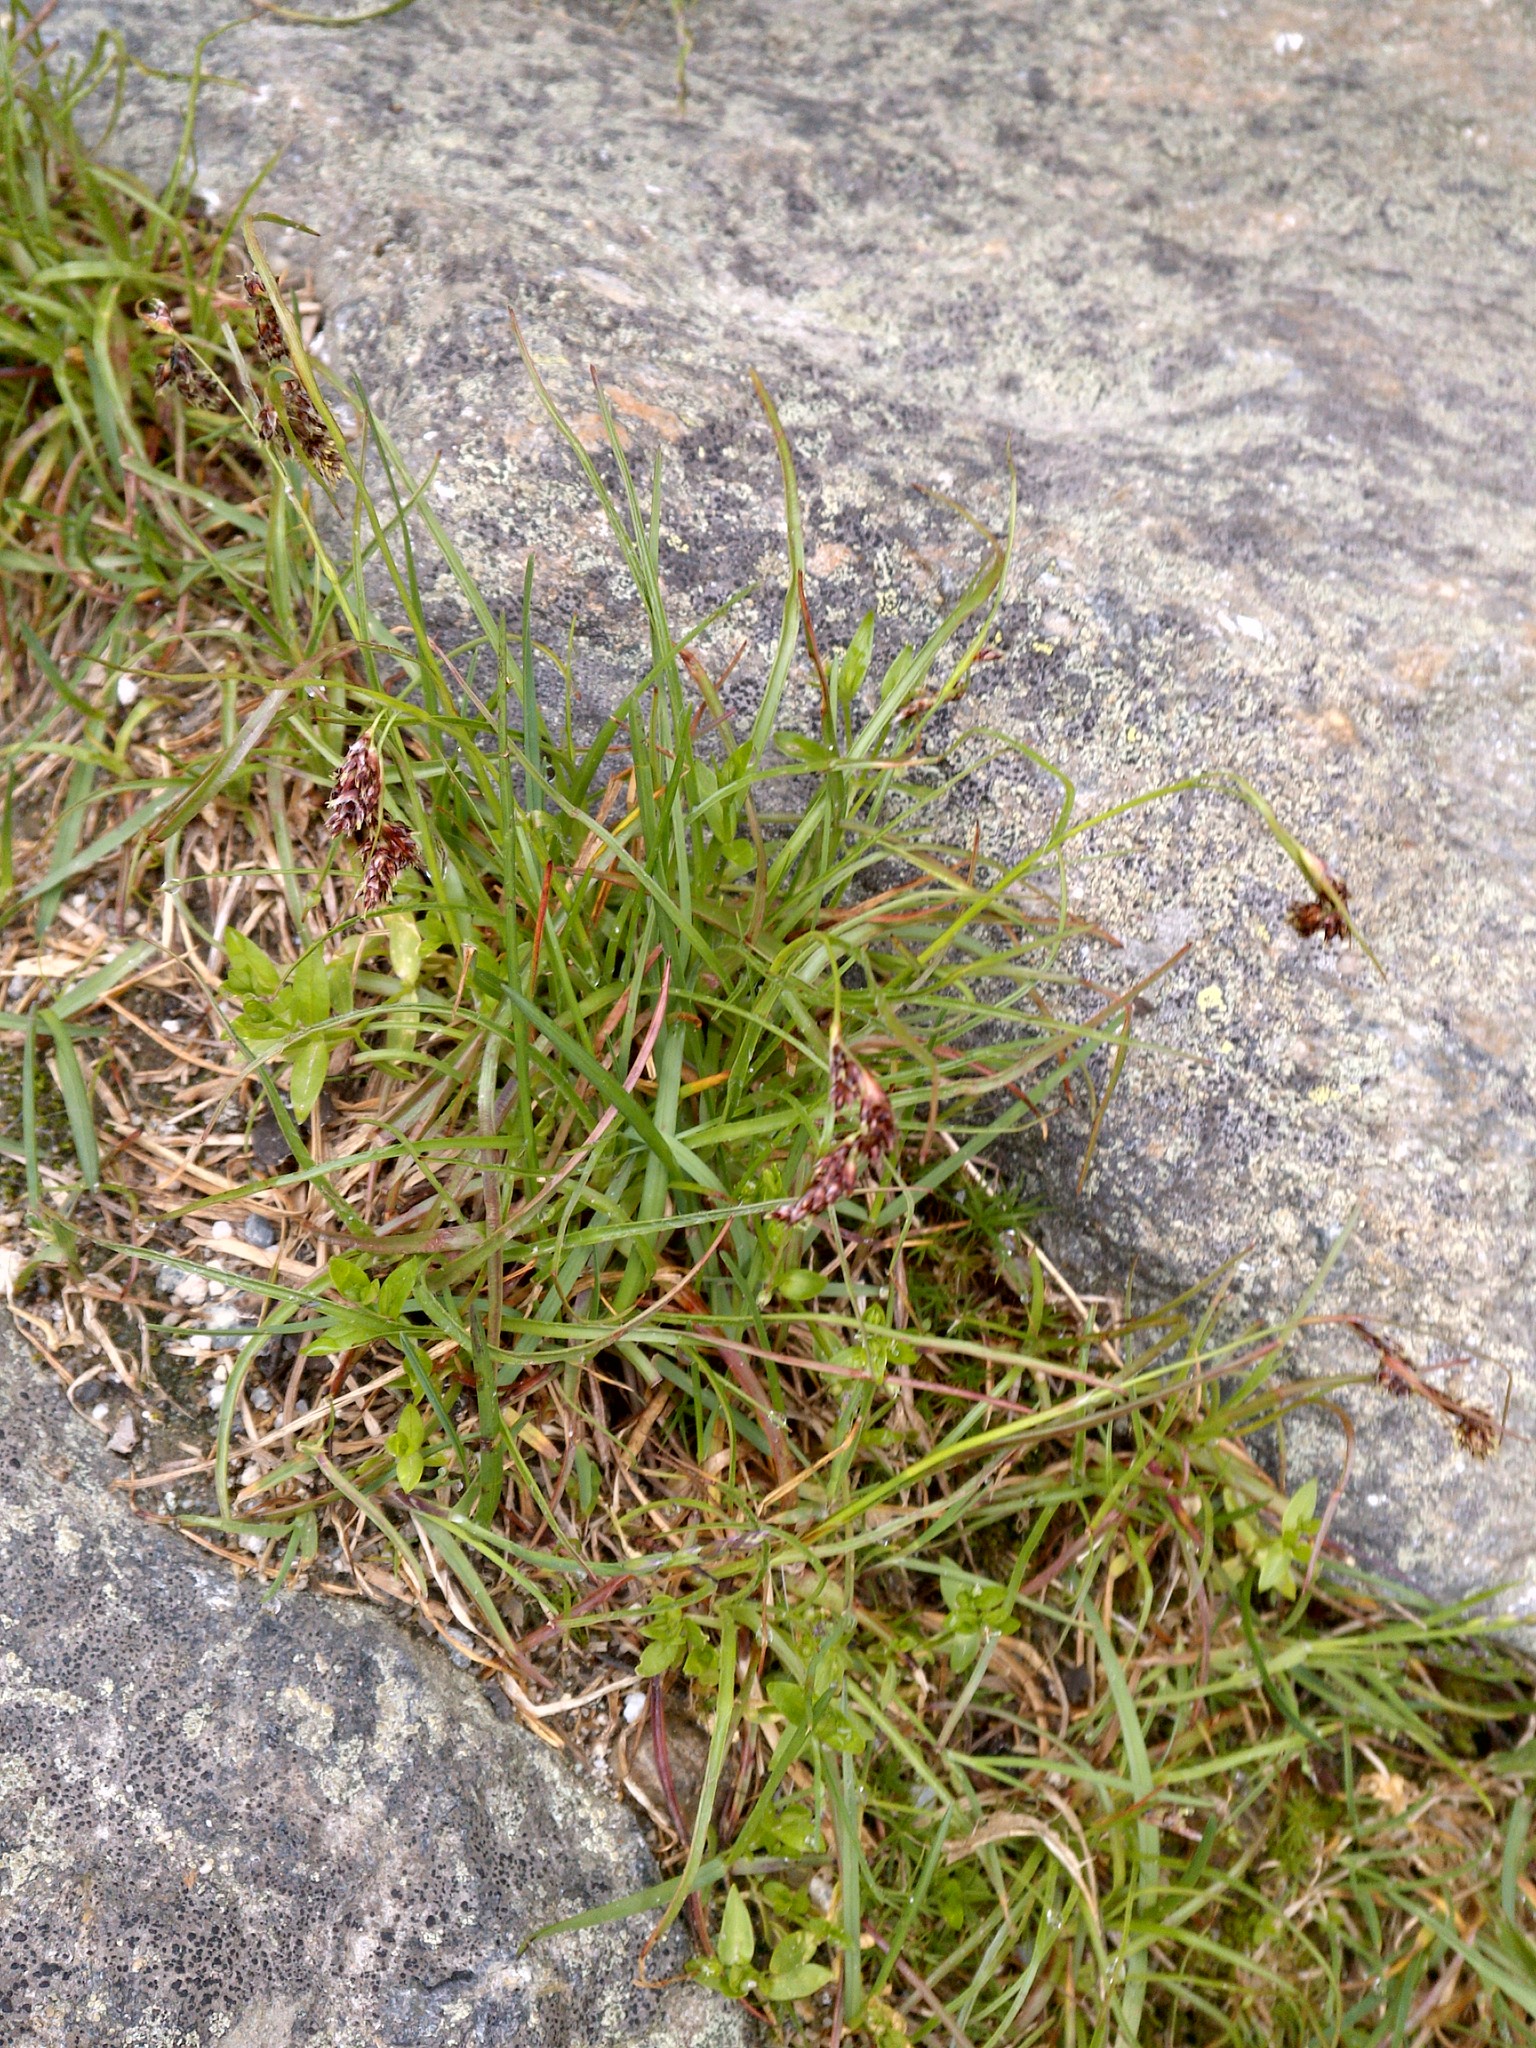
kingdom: Plantae
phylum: Tracheophyta
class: Liliopsida
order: Poales
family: Juncaceae
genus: Luzula
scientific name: Luzula spicata
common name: Spiked wood-rush
